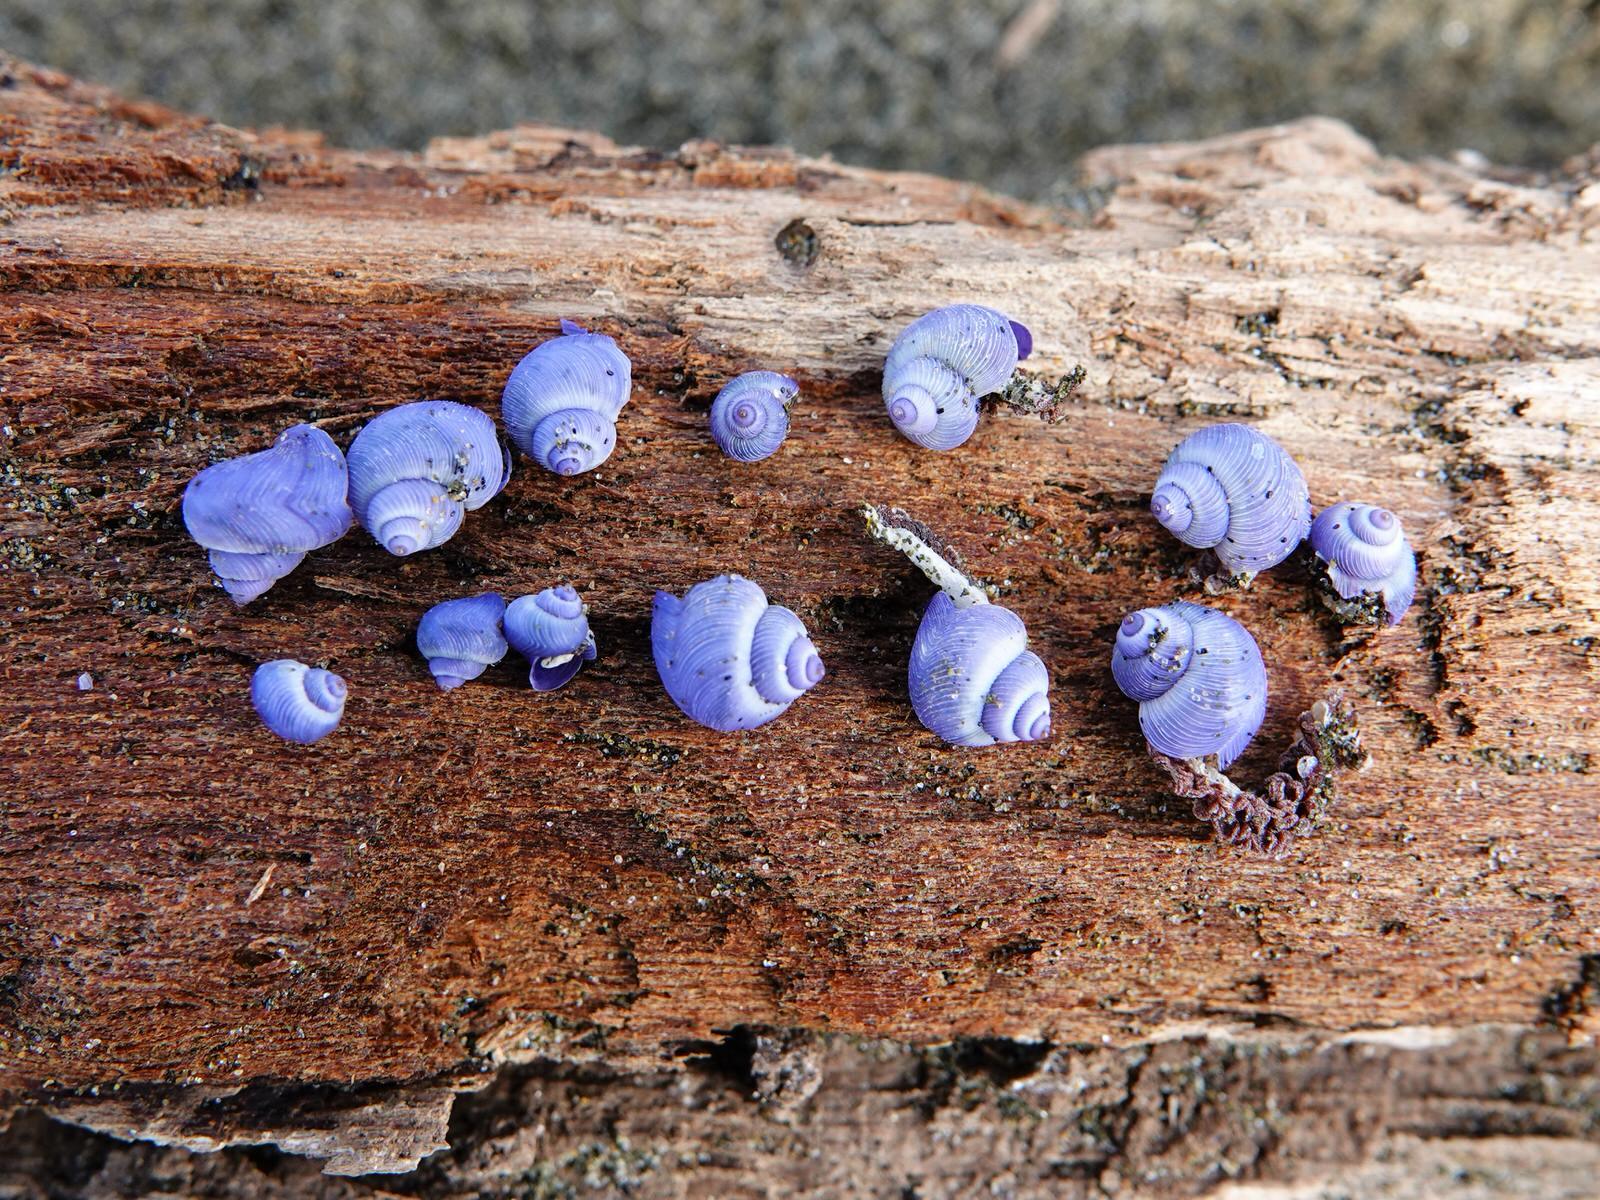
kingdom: Animalia
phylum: Mollusca
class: Gastropoda
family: Epitoniidae
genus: Janthina
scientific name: Janthina exigua
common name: Dwarf janthina
